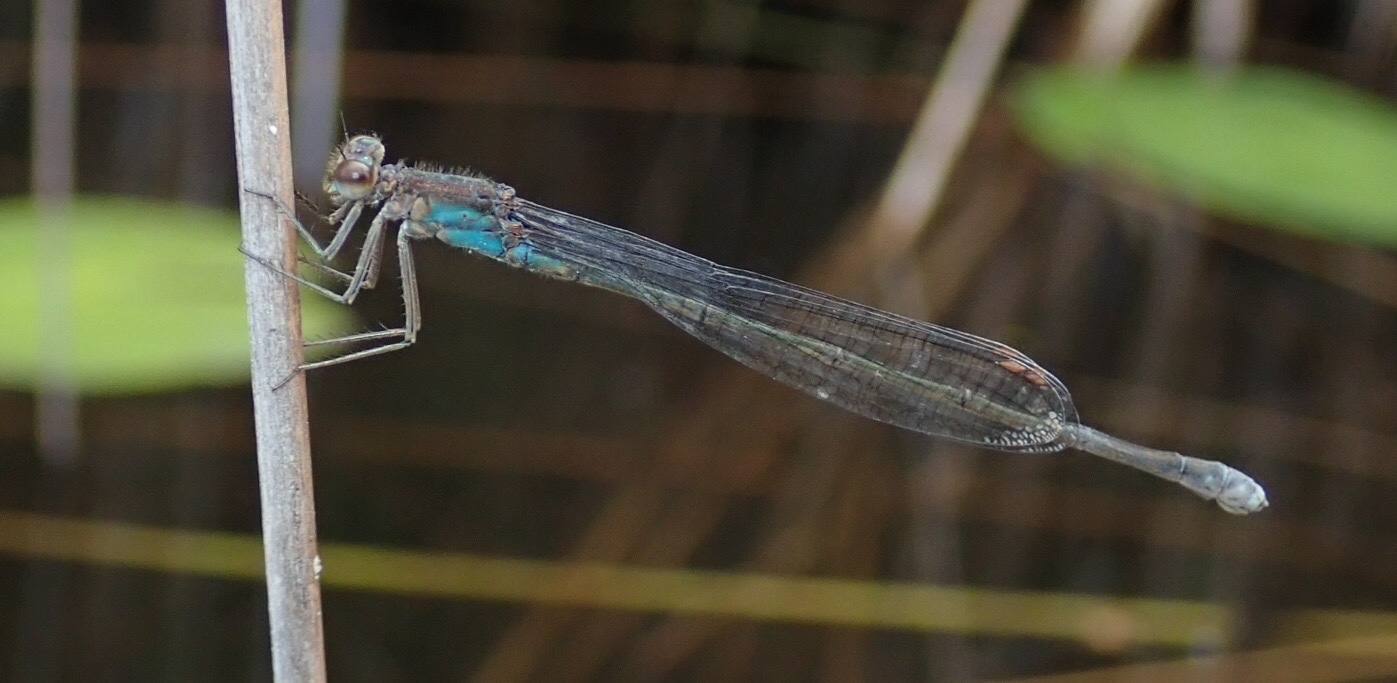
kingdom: Animalia
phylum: Arthropoda
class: Insecta
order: Odonata
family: Coenagrionidae
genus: Pseudagrion
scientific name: Pseudagrion sudanicum
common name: Blue-sided sprite
